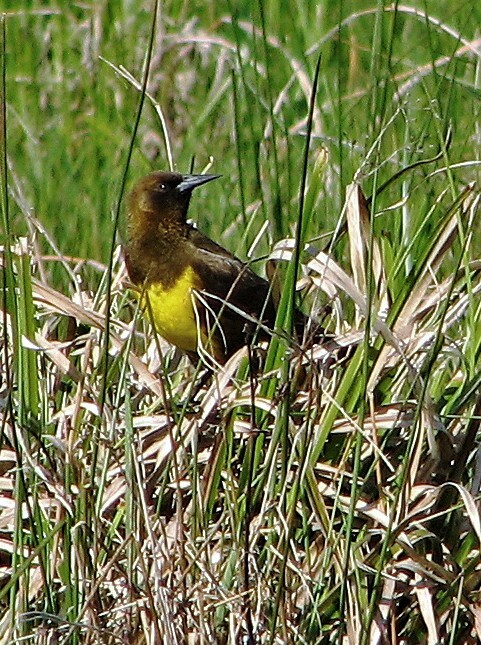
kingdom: Animalia
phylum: Chordata
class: Aves
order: Passeriformes
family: Icteridae
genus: Pseudoleistes
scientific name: Pseudoleistes virescens
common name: Brown-and-yellow marshbird
